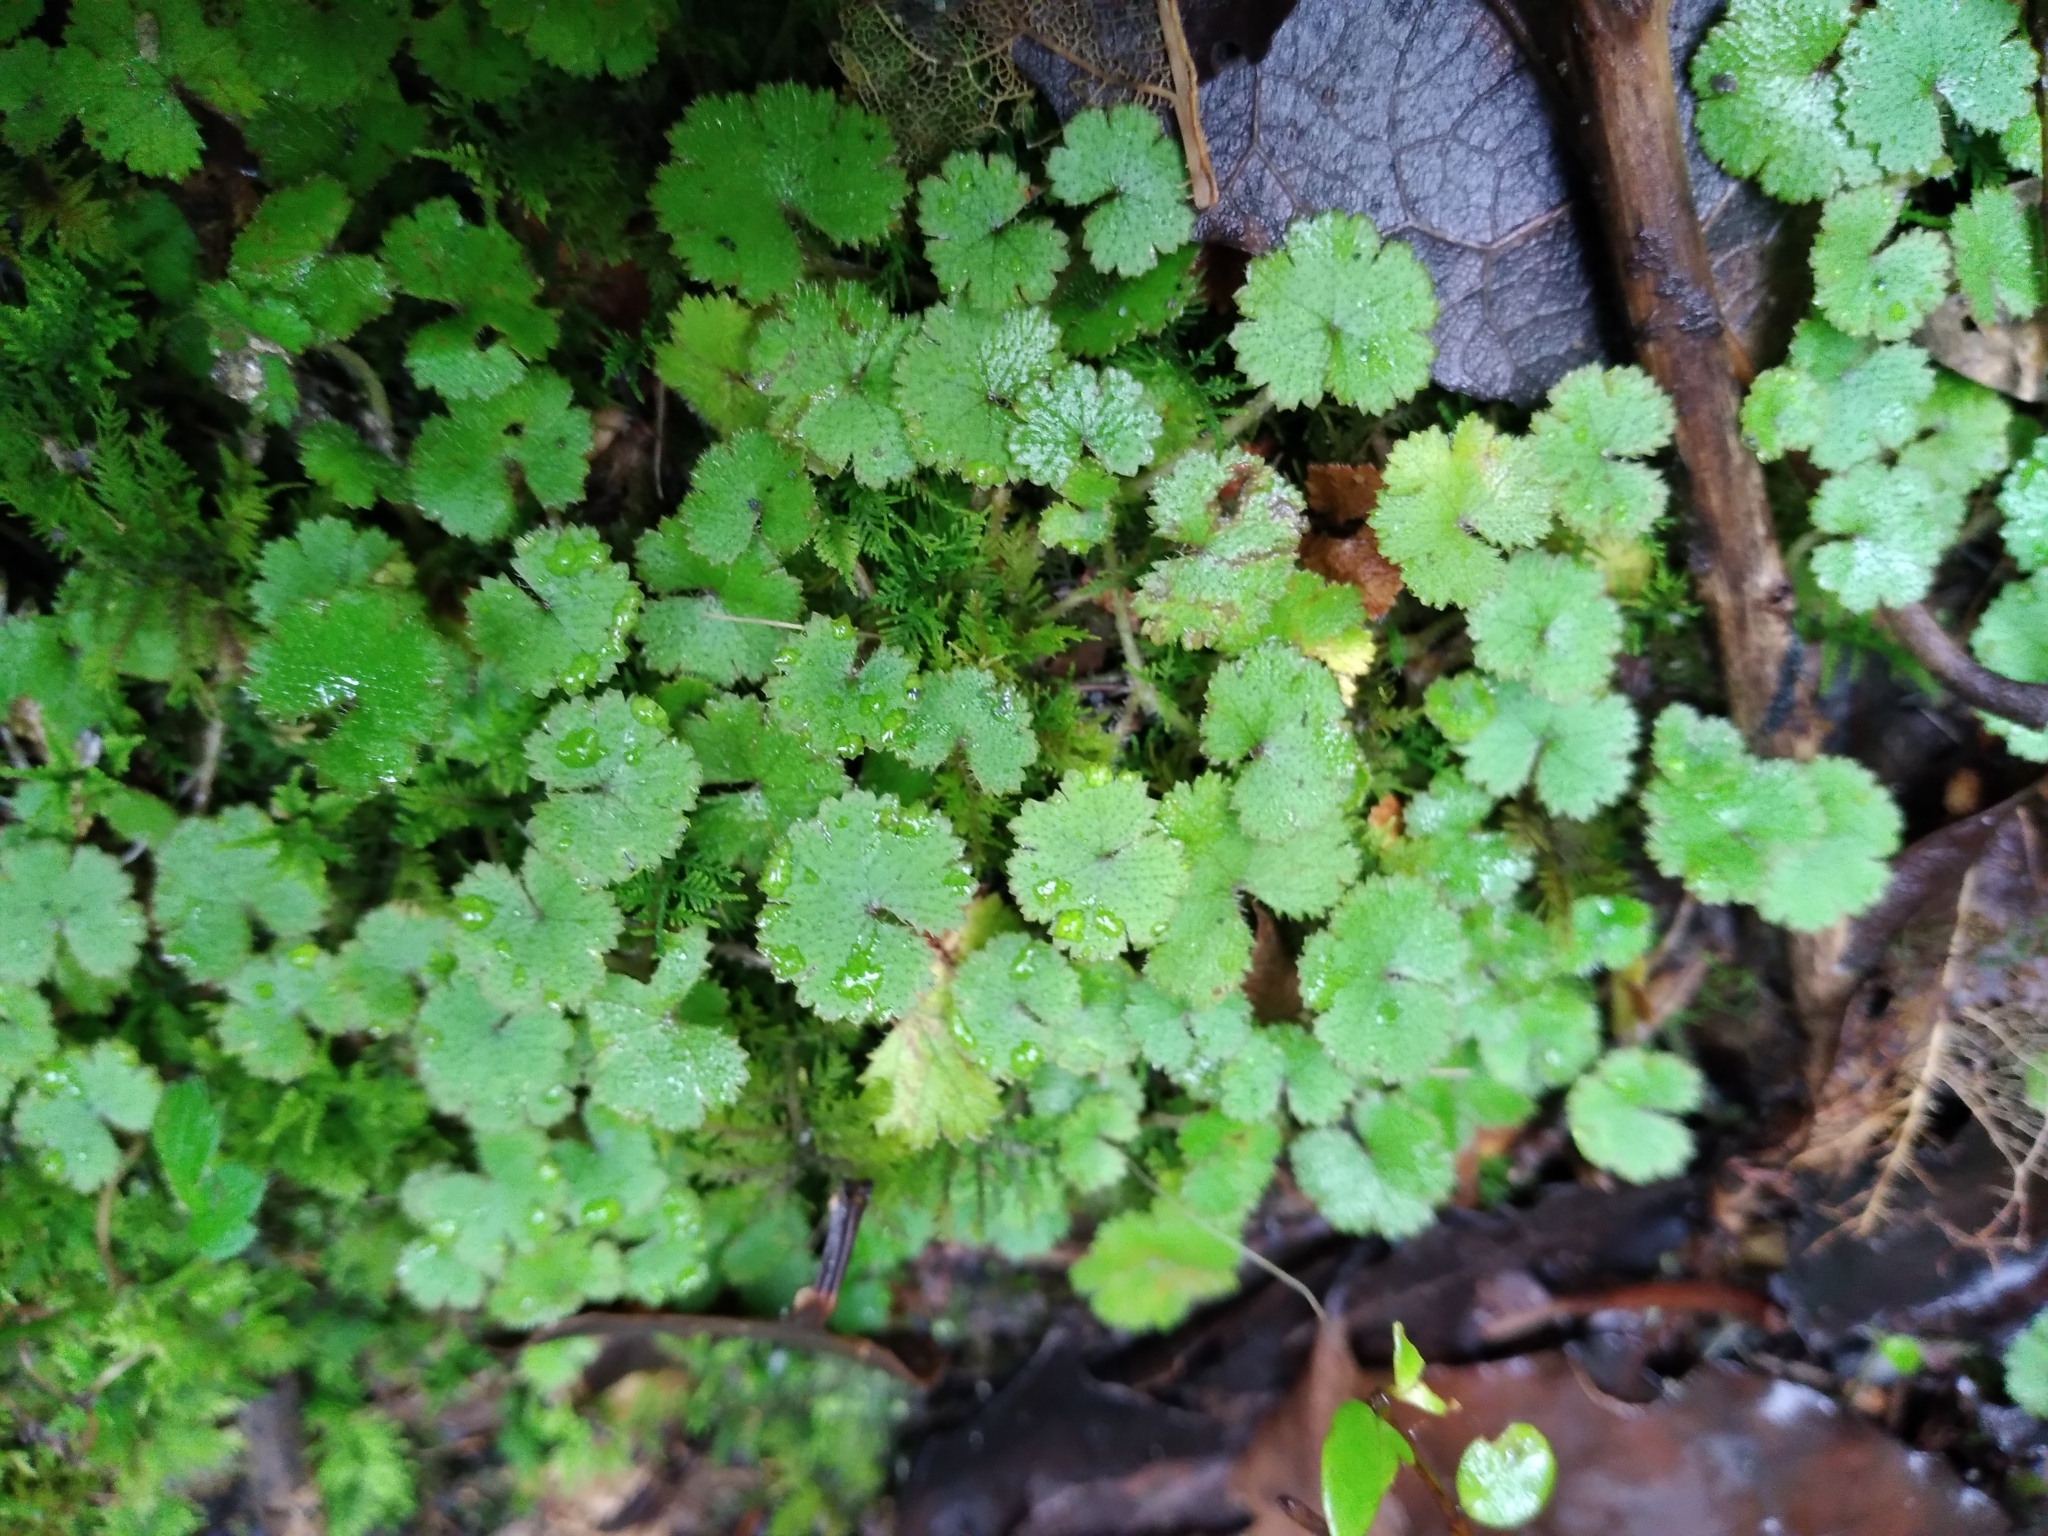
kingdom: Plantae
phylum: Tracheophyta
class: Magnoliopsida
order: Apiales
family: Araliaceae
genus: Hydrocotyle
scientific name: Hydrocotyle moschata
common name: Hairy pennywort
